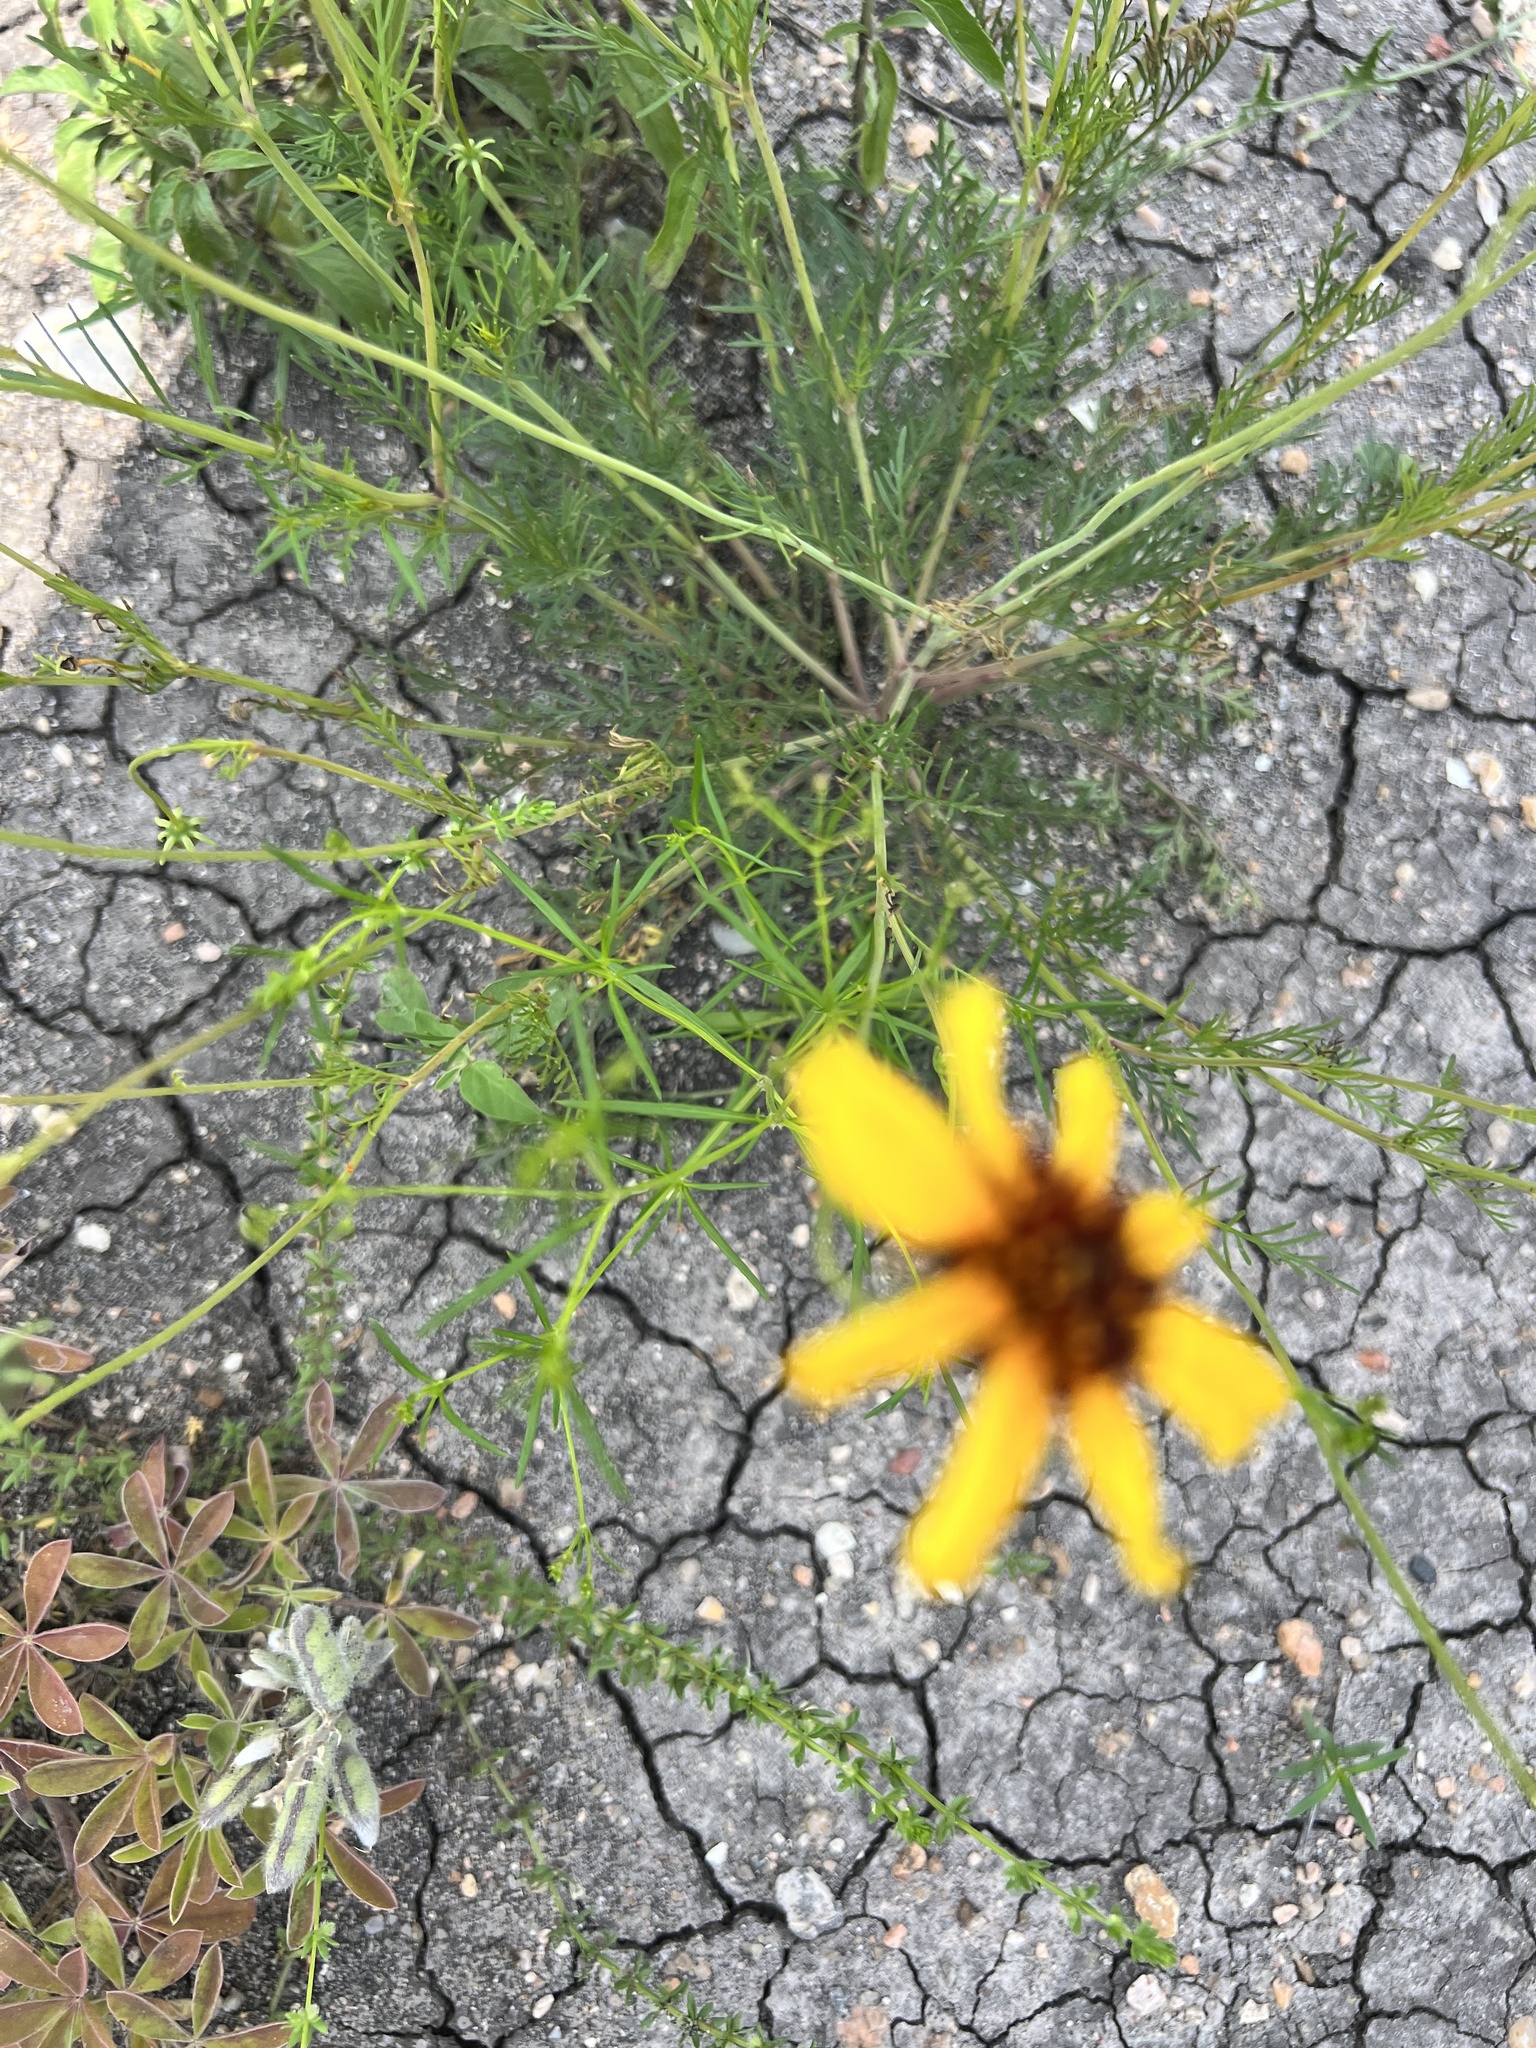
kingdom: Plantae
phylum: Tracheophyta
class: Magnoliopsida
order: Asterales
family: Asteraceae
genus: Thelesperma
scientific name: Thelesperma filifolium
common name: Stiff greenthread
